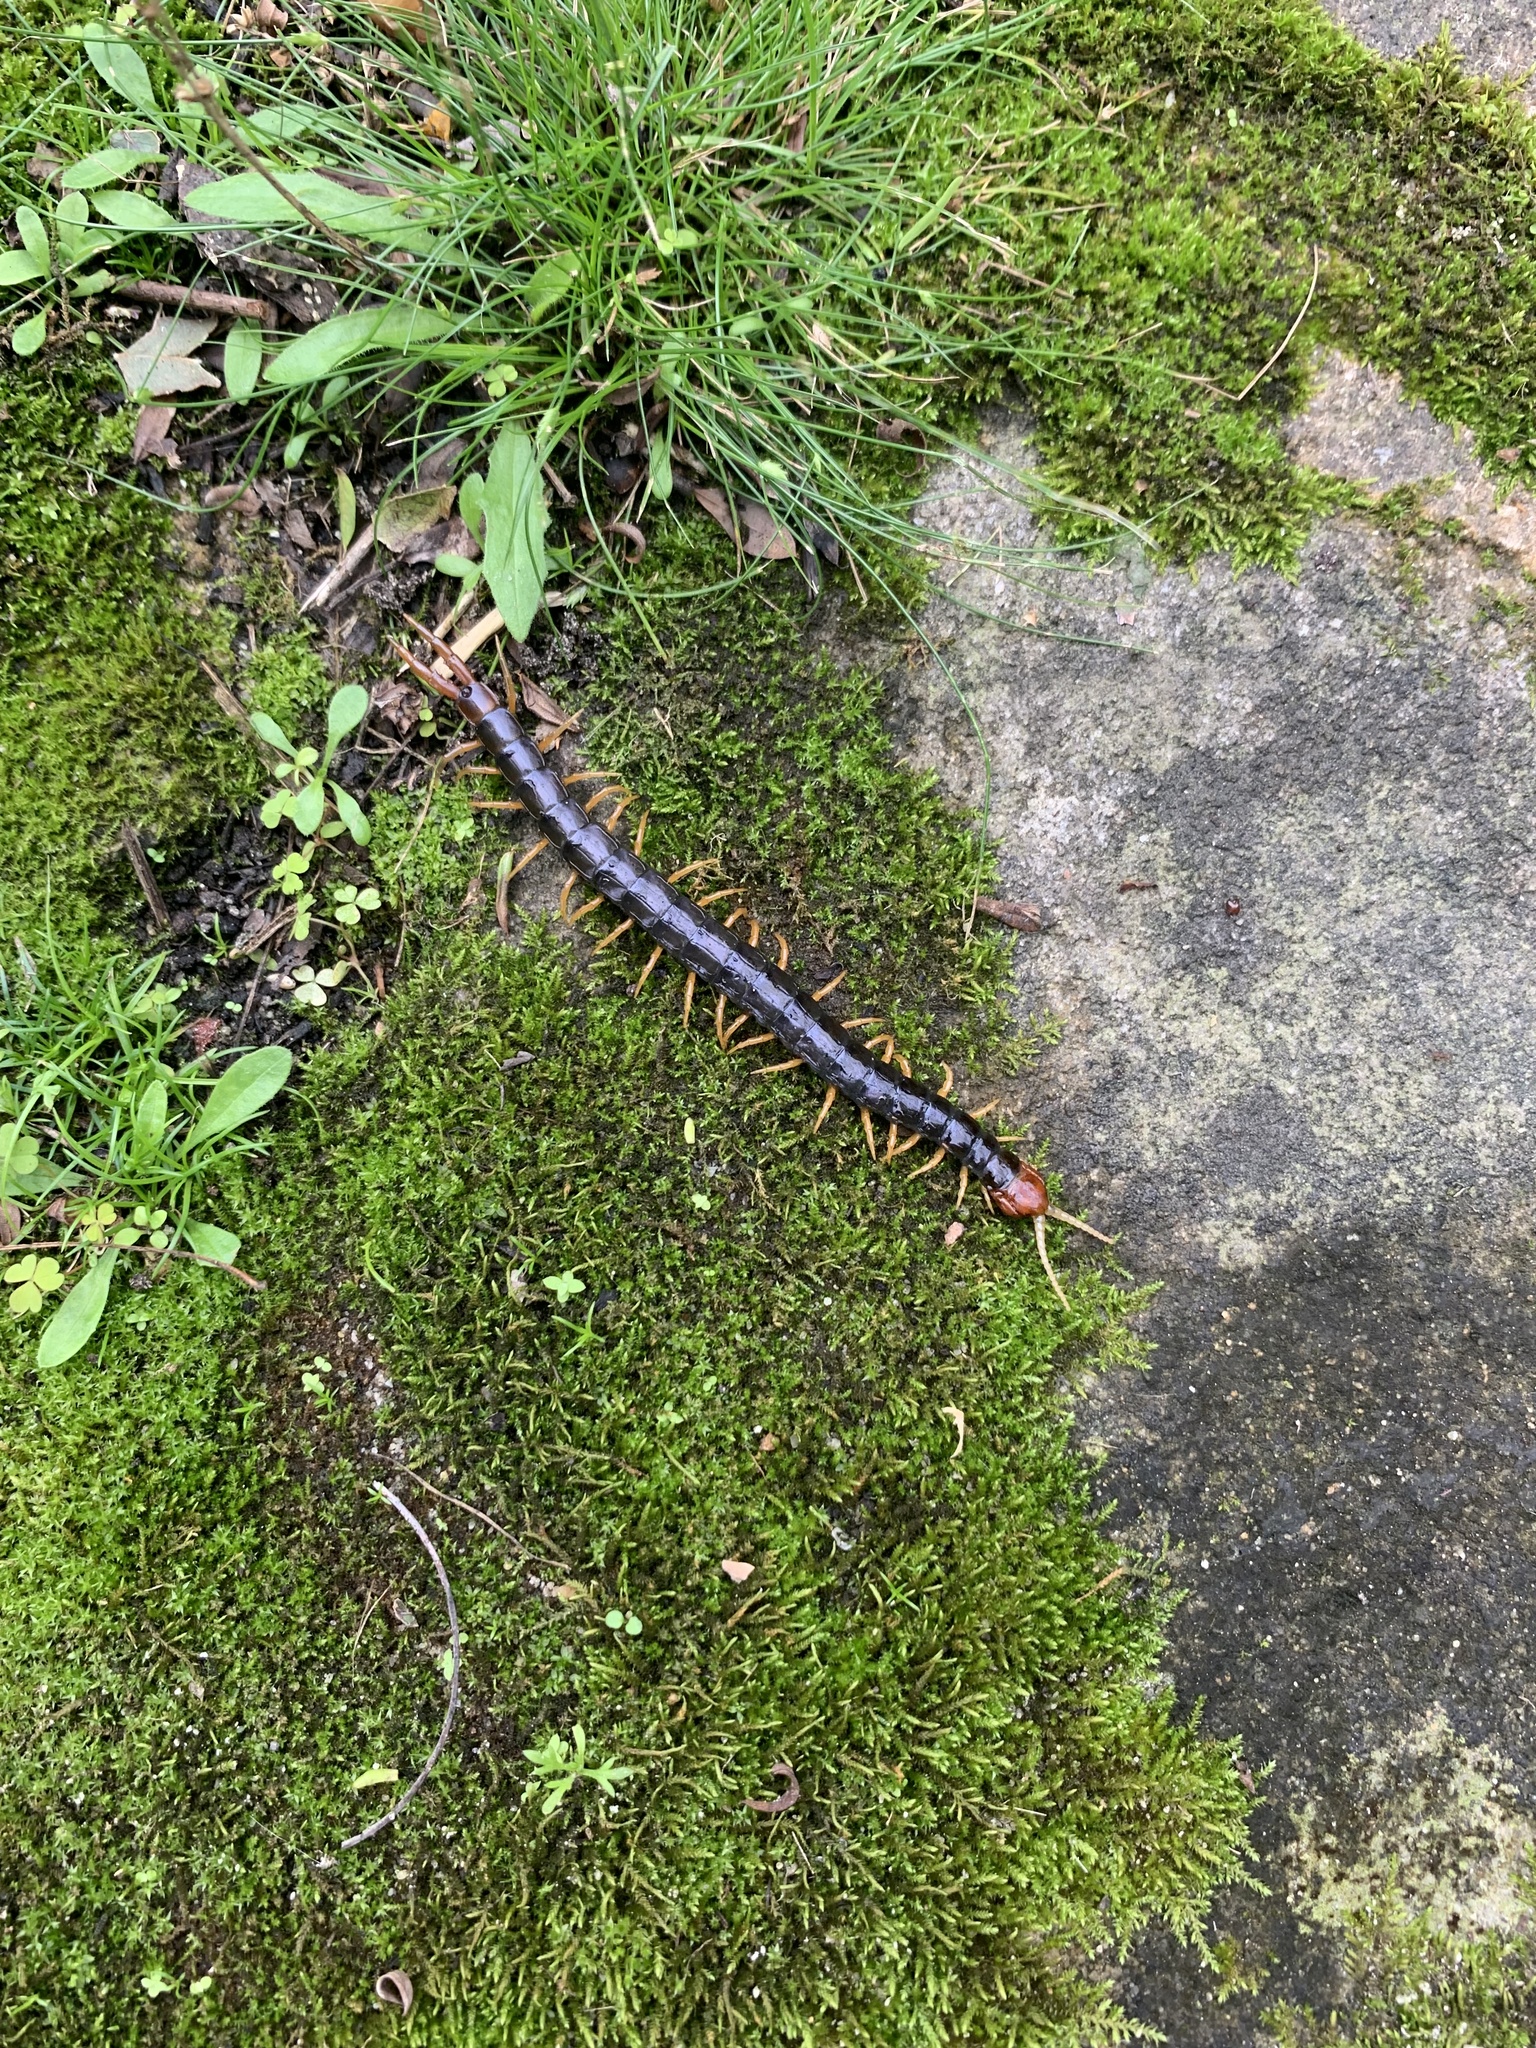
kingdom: Animalia
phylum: Arthropoda
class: Chilopoda
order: Scolopendromorpha
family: Scolopendridae
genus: Cormocephalus
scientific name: Cormocephalus westwoodi
